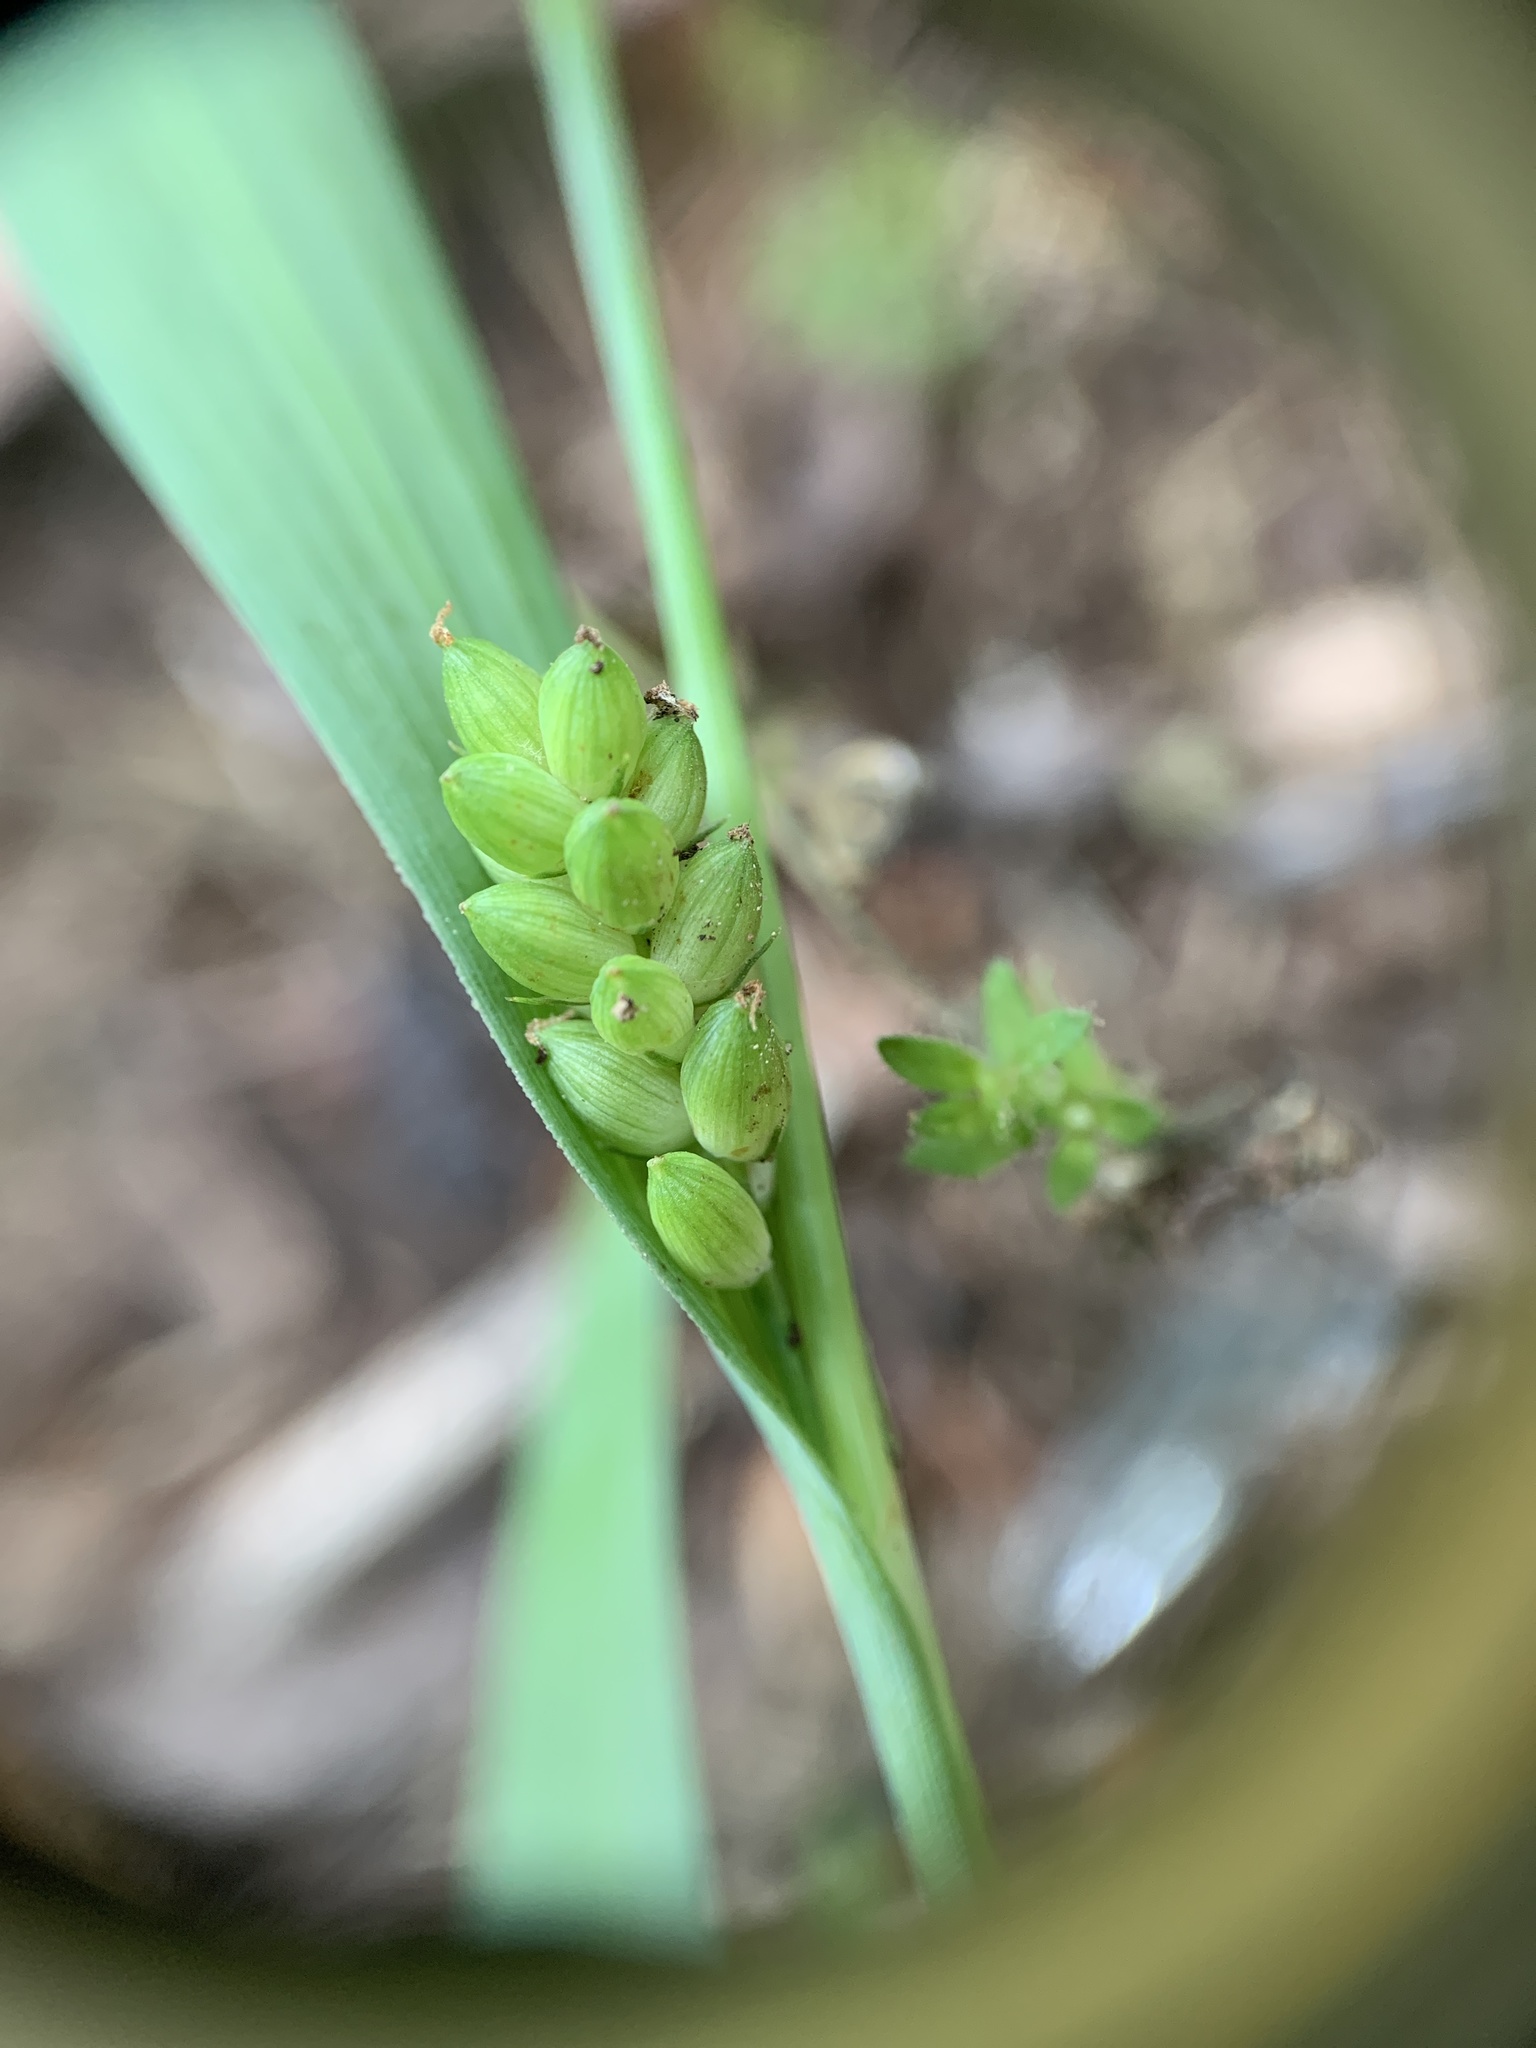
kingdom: Plantae
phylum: Tracheophyta
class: Liliopsida
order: Poales
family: Cyperaceae
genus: Carex
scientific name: Carex glaucodea
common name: Blue sedge
